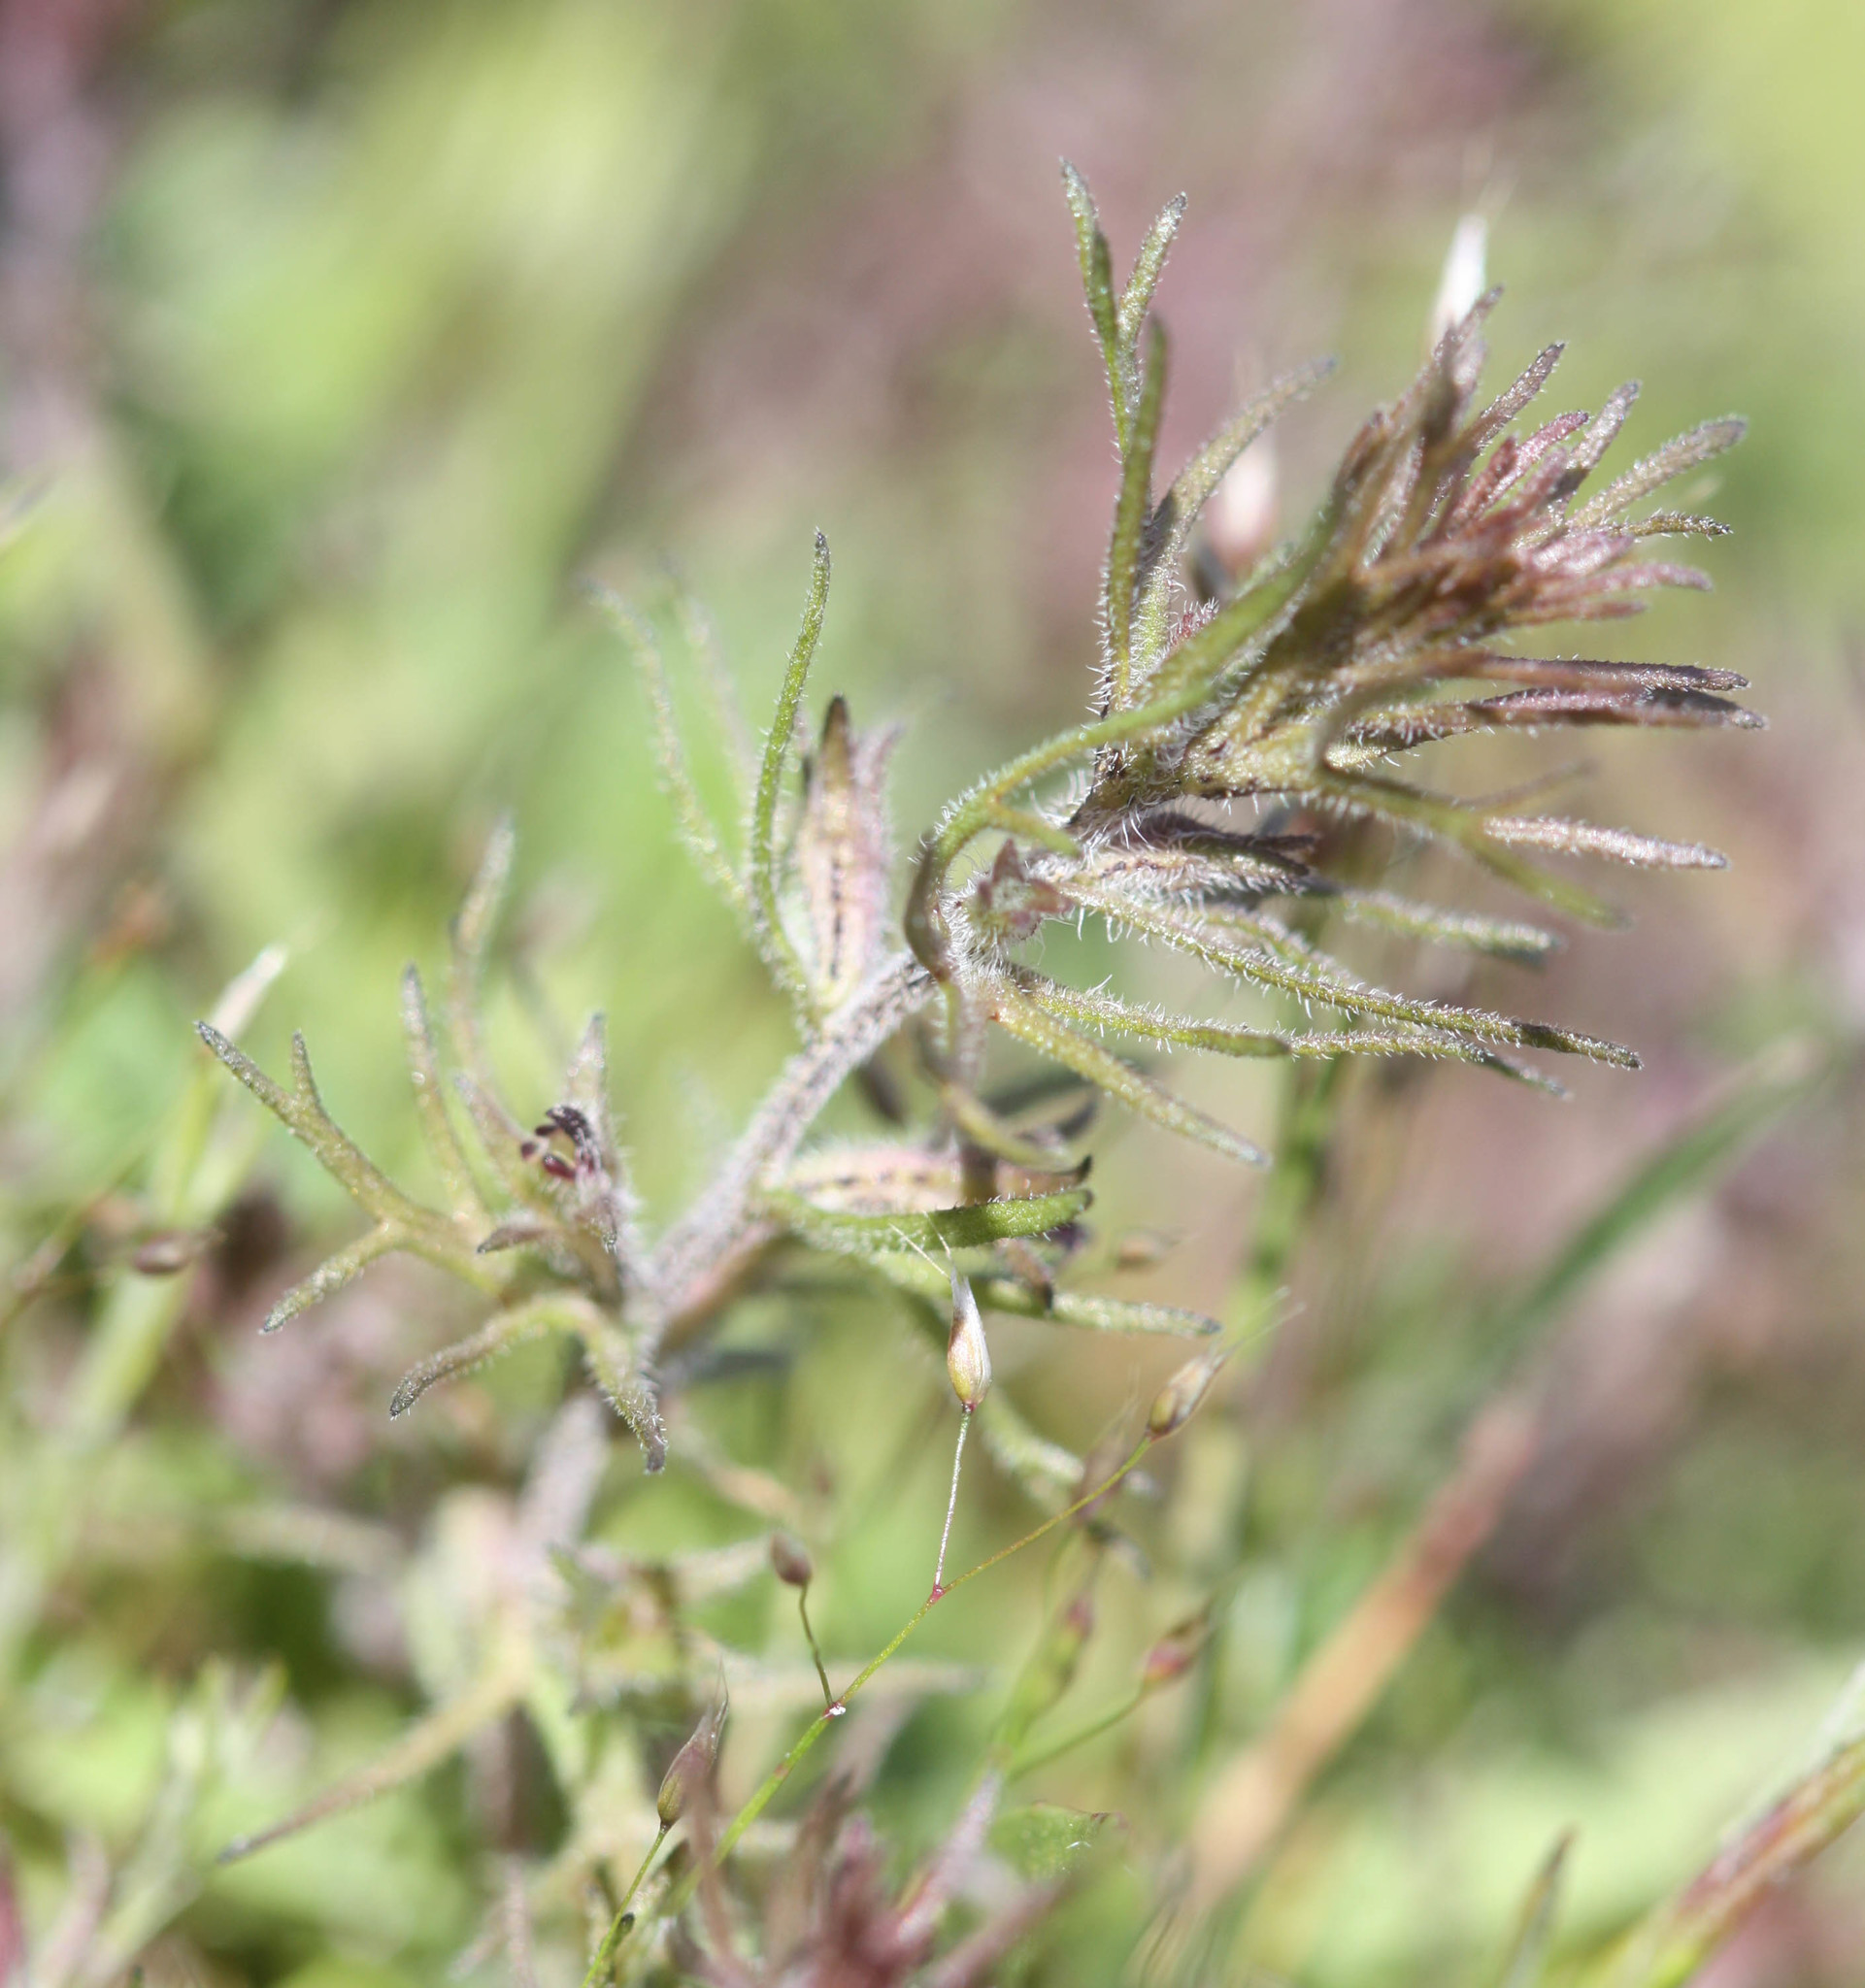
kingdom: Plantae
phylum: Tracheophyta
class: Magnoliopsida
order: Lamiales
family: Orobanchaceae
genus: Triphysaria
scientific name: Triphysaria pusilla
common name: Dwarf false owl-clover
